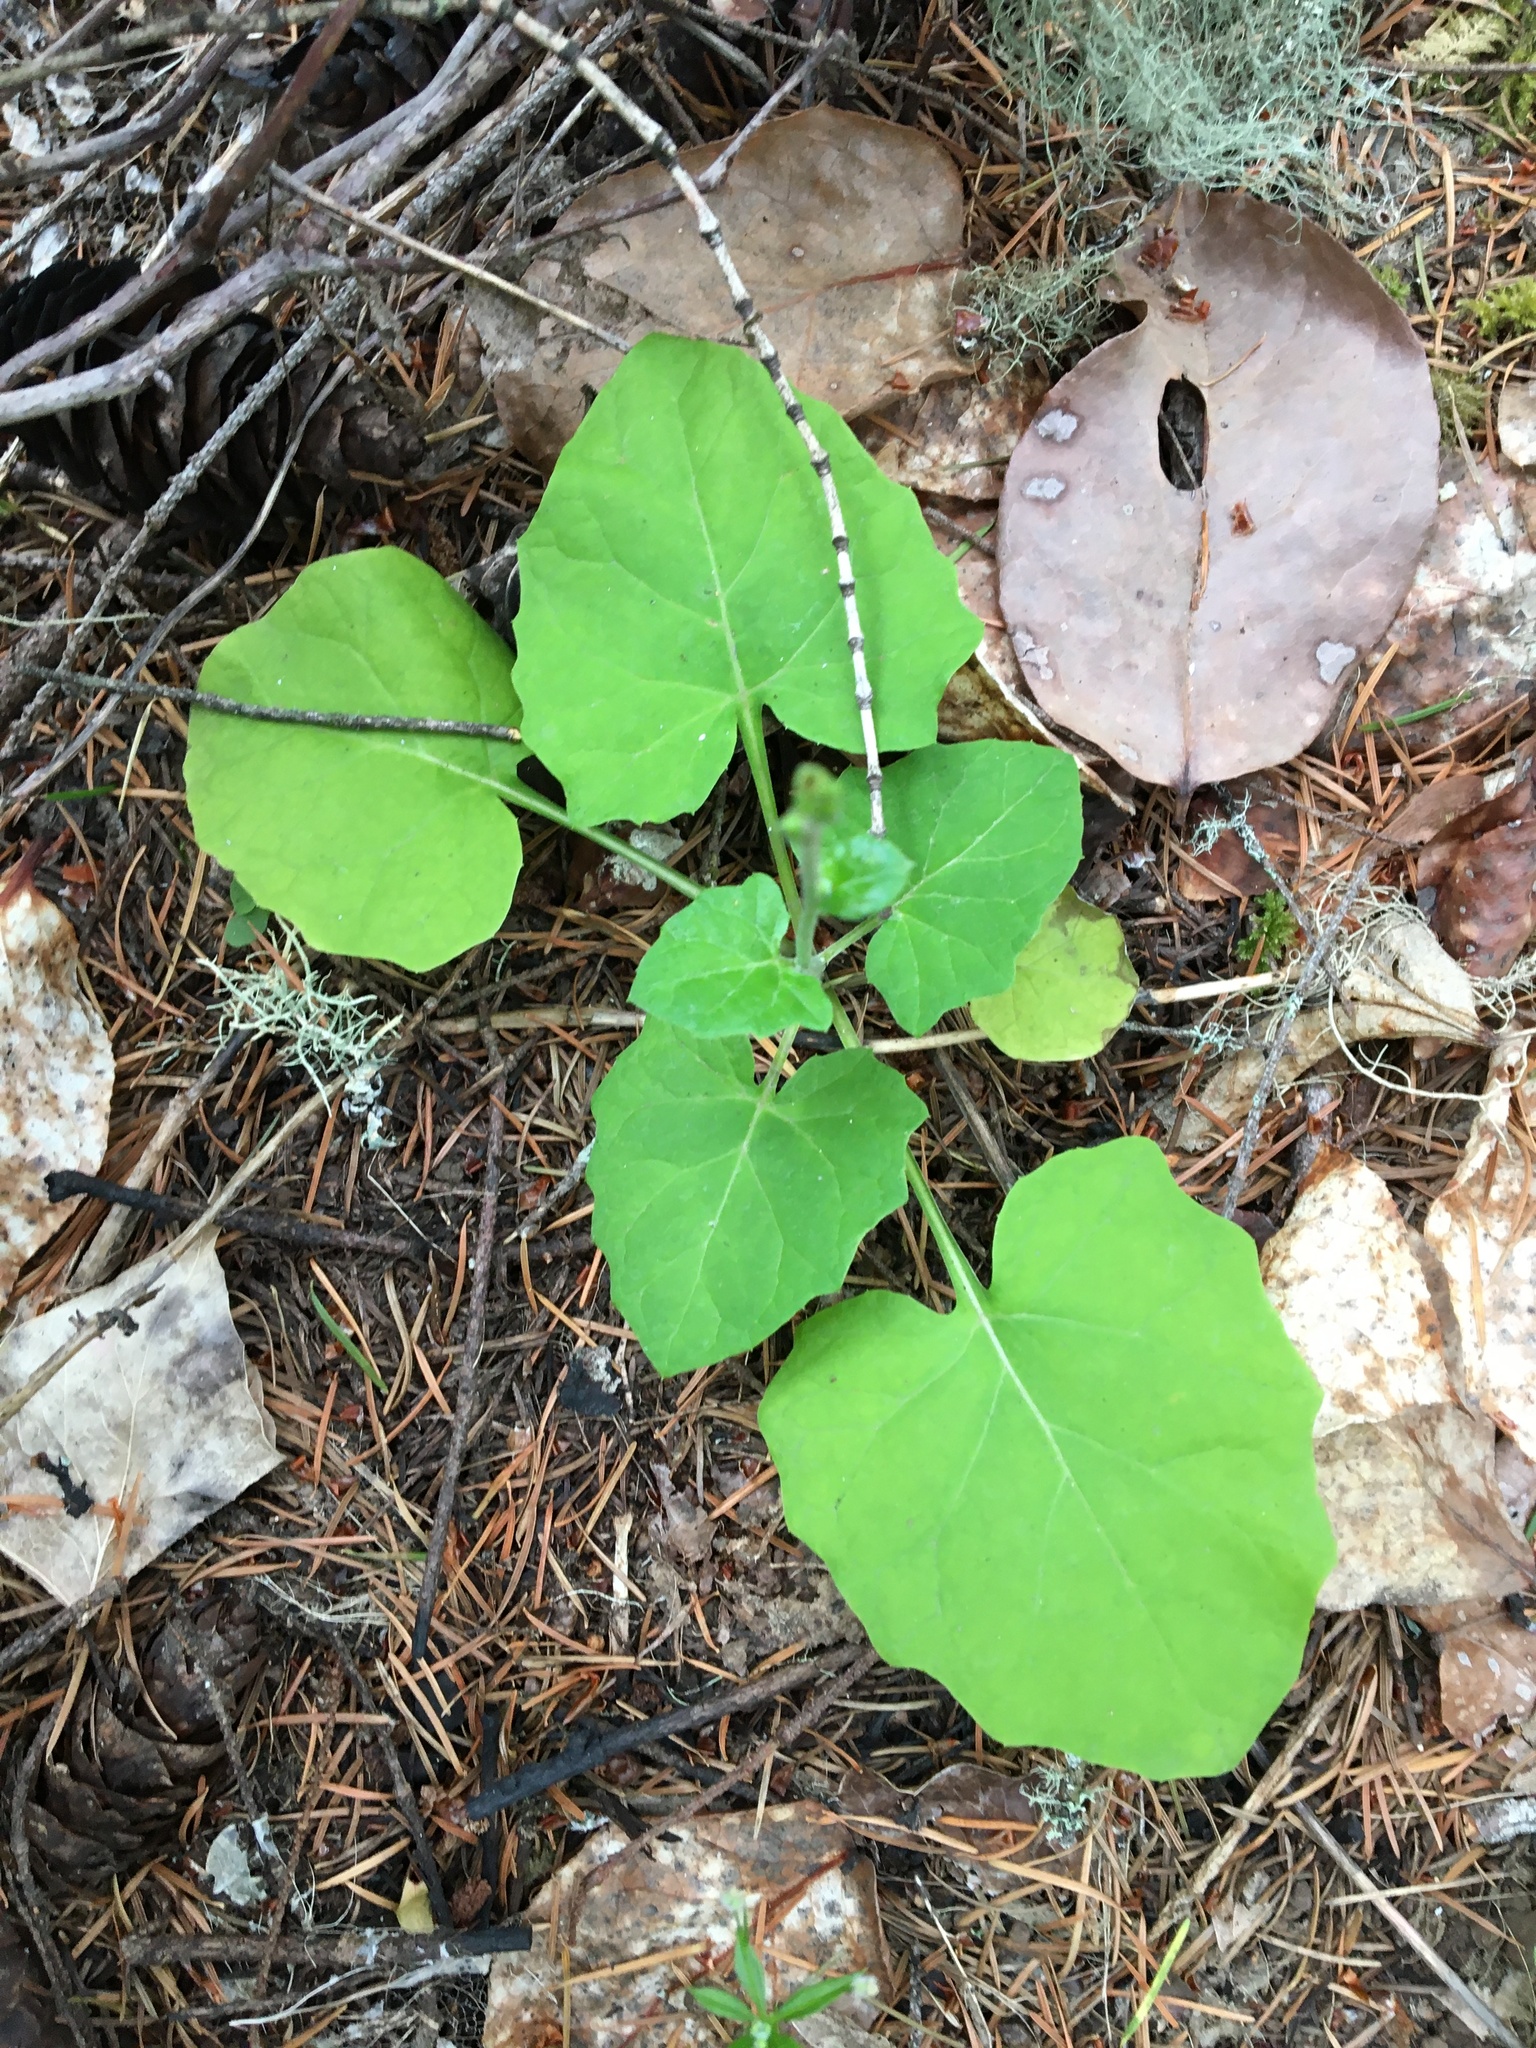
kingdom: Plantae
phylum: Tracheophyta
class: Magnoliopsida
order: Asterales
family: Asteraceae
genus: Adenocaulon
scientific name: Adenocaulon bicolor
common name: Trailplant
